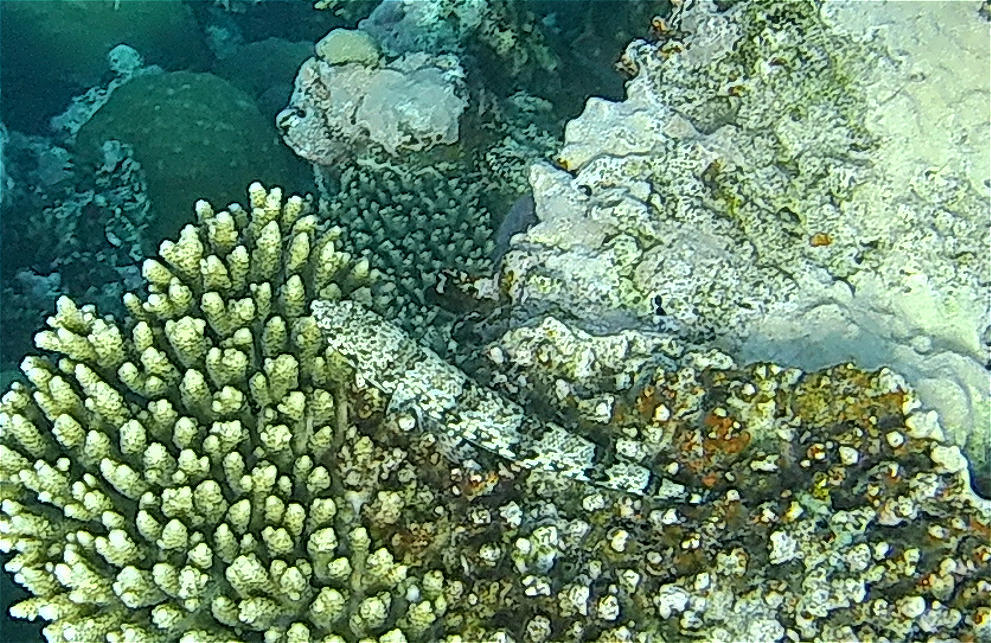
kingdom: Animalia
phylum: Chordata
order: Aulopiformes
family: Synodontidae
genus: Synodus
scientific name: Synodus dermatogenys
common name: Banded lizardfish
